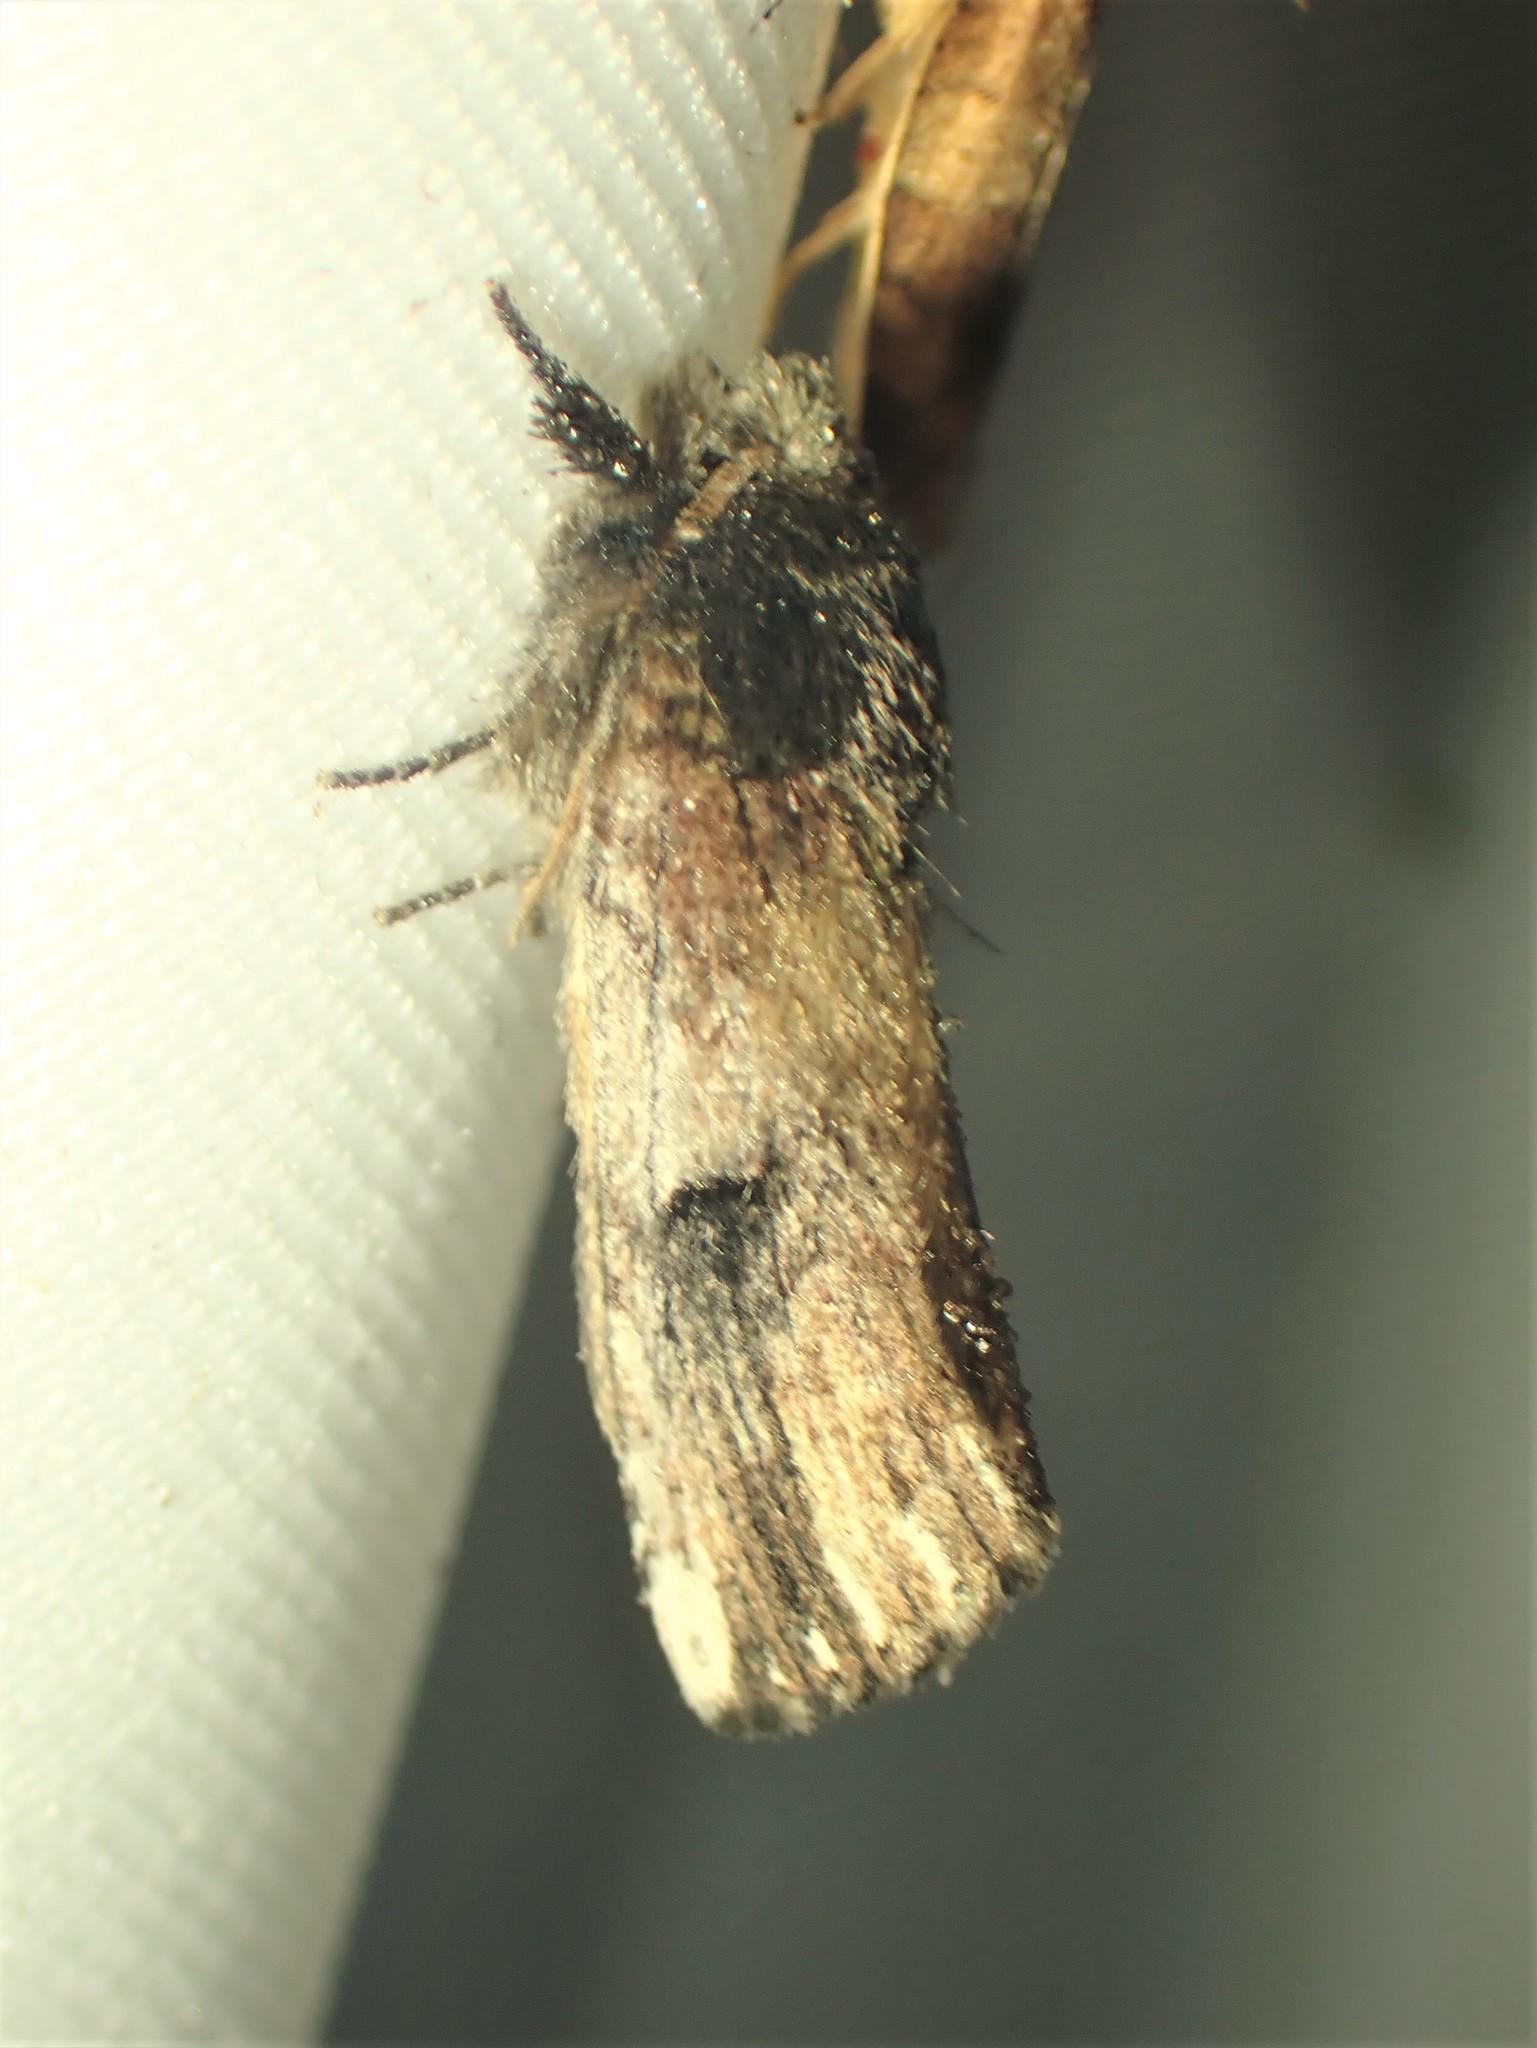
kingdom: Animalia
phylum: Arthropoda
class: Insecta
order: Lepidoptera
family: Notodontidae
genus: Schizura
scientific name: Schizura badia
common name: Chestnut schizura
